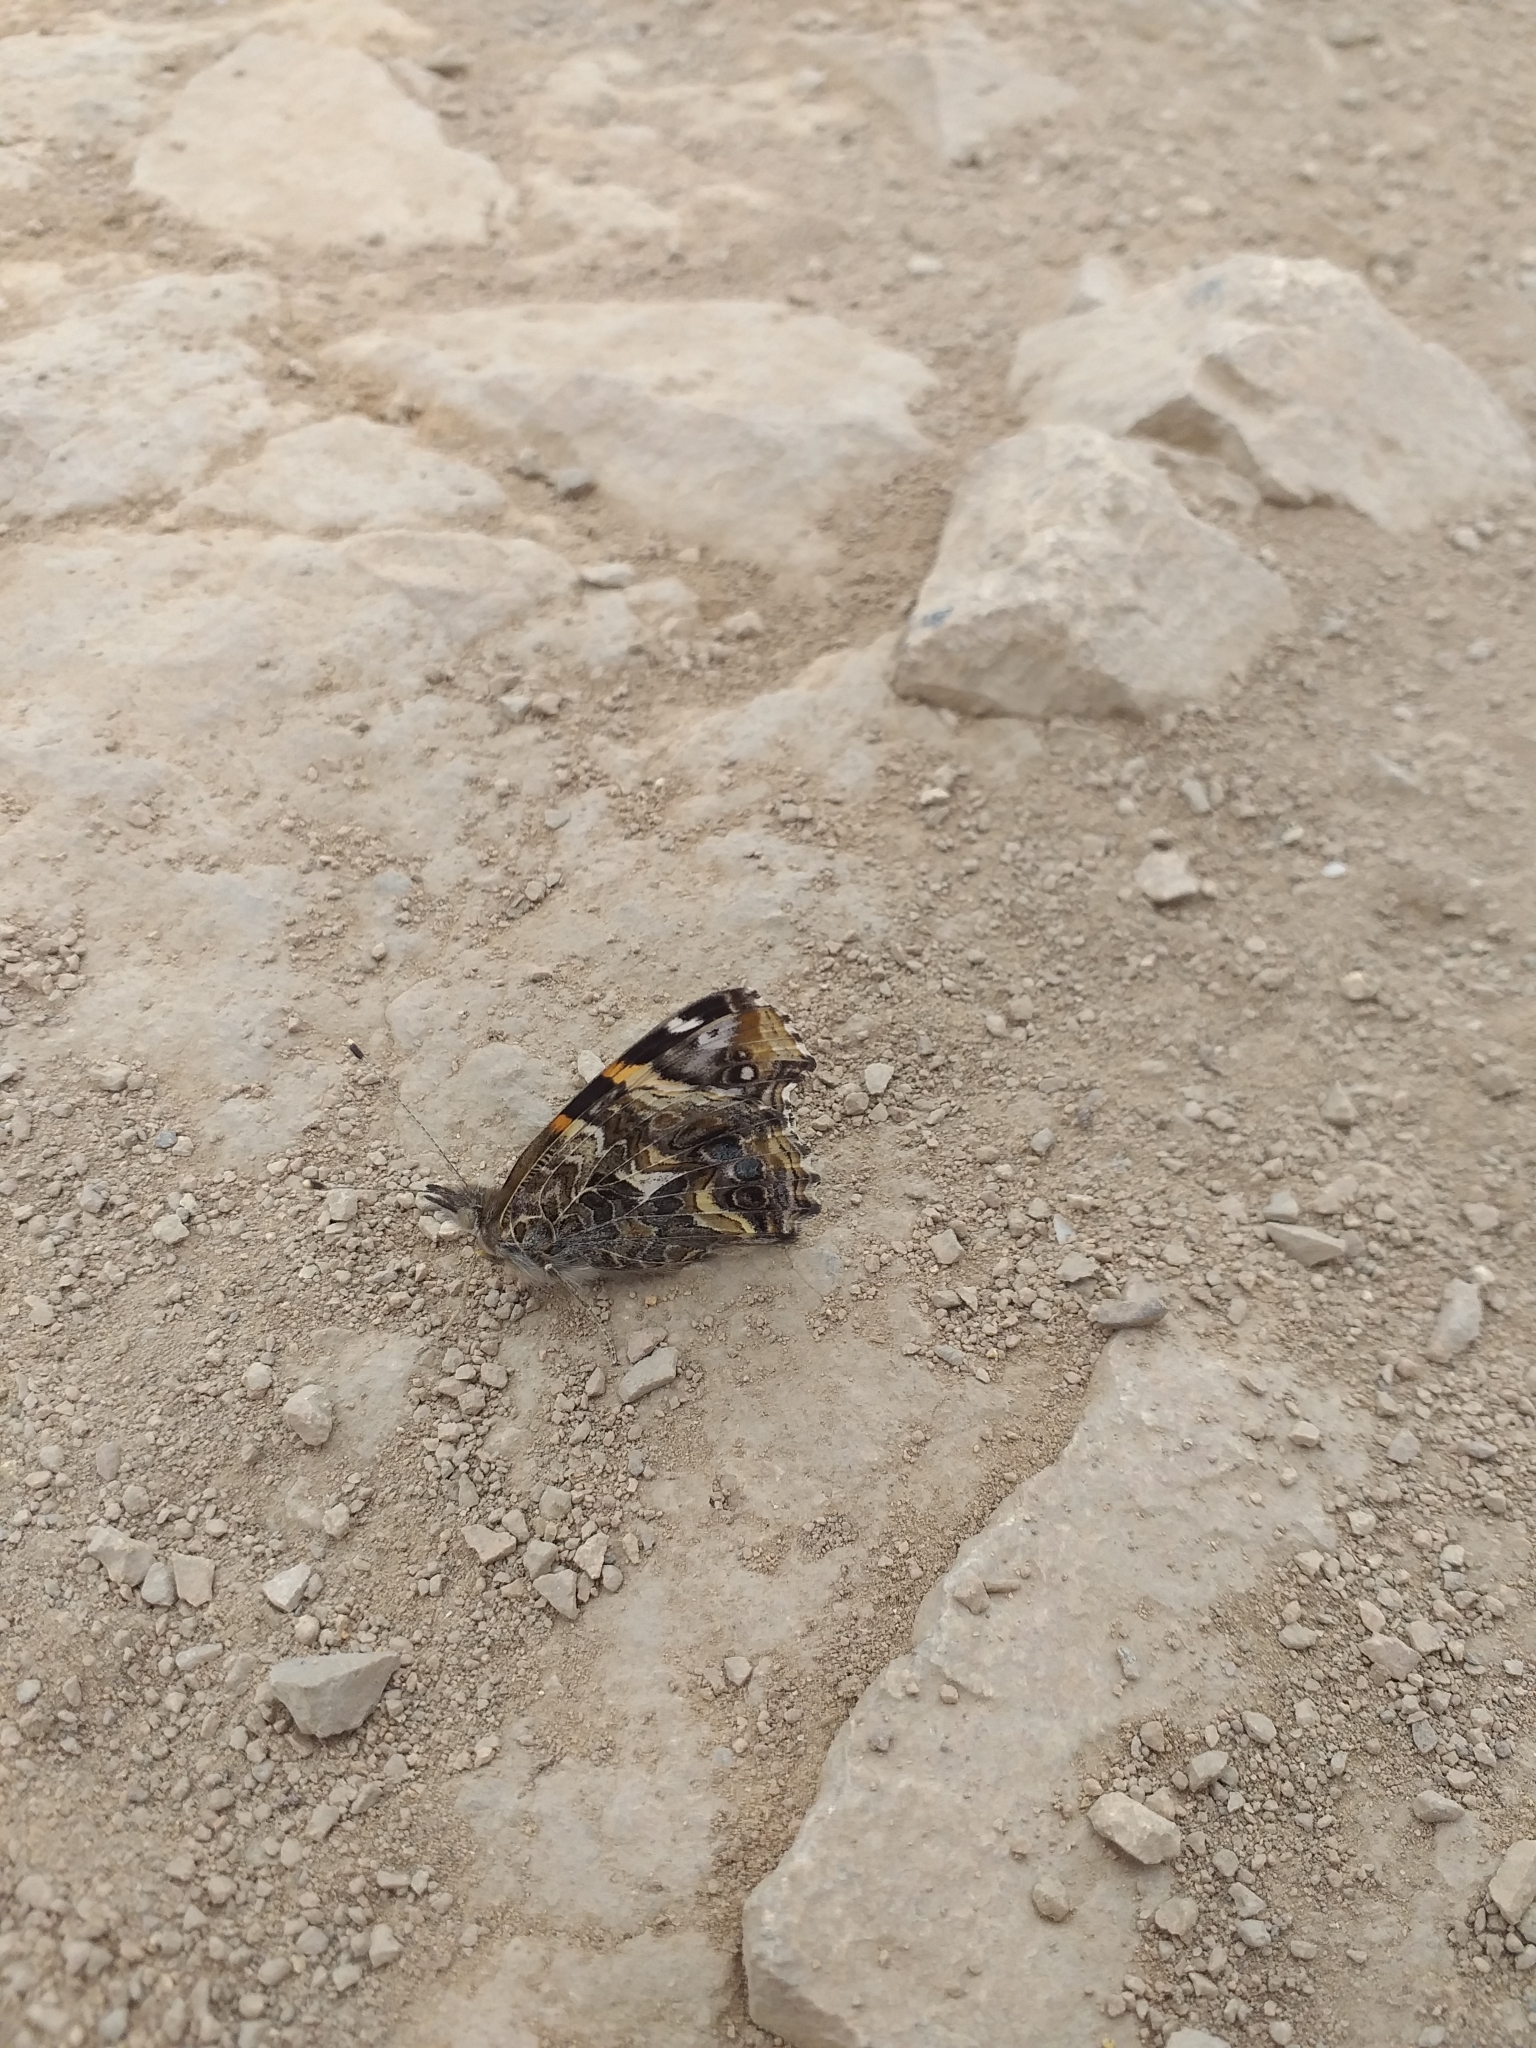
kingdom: Animalia
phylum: Arthropoda
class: Insecta
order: Lepidoptera
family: Nymphalidae
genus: Vanessa
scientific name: Vanessa carye
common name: Subtropical lady
